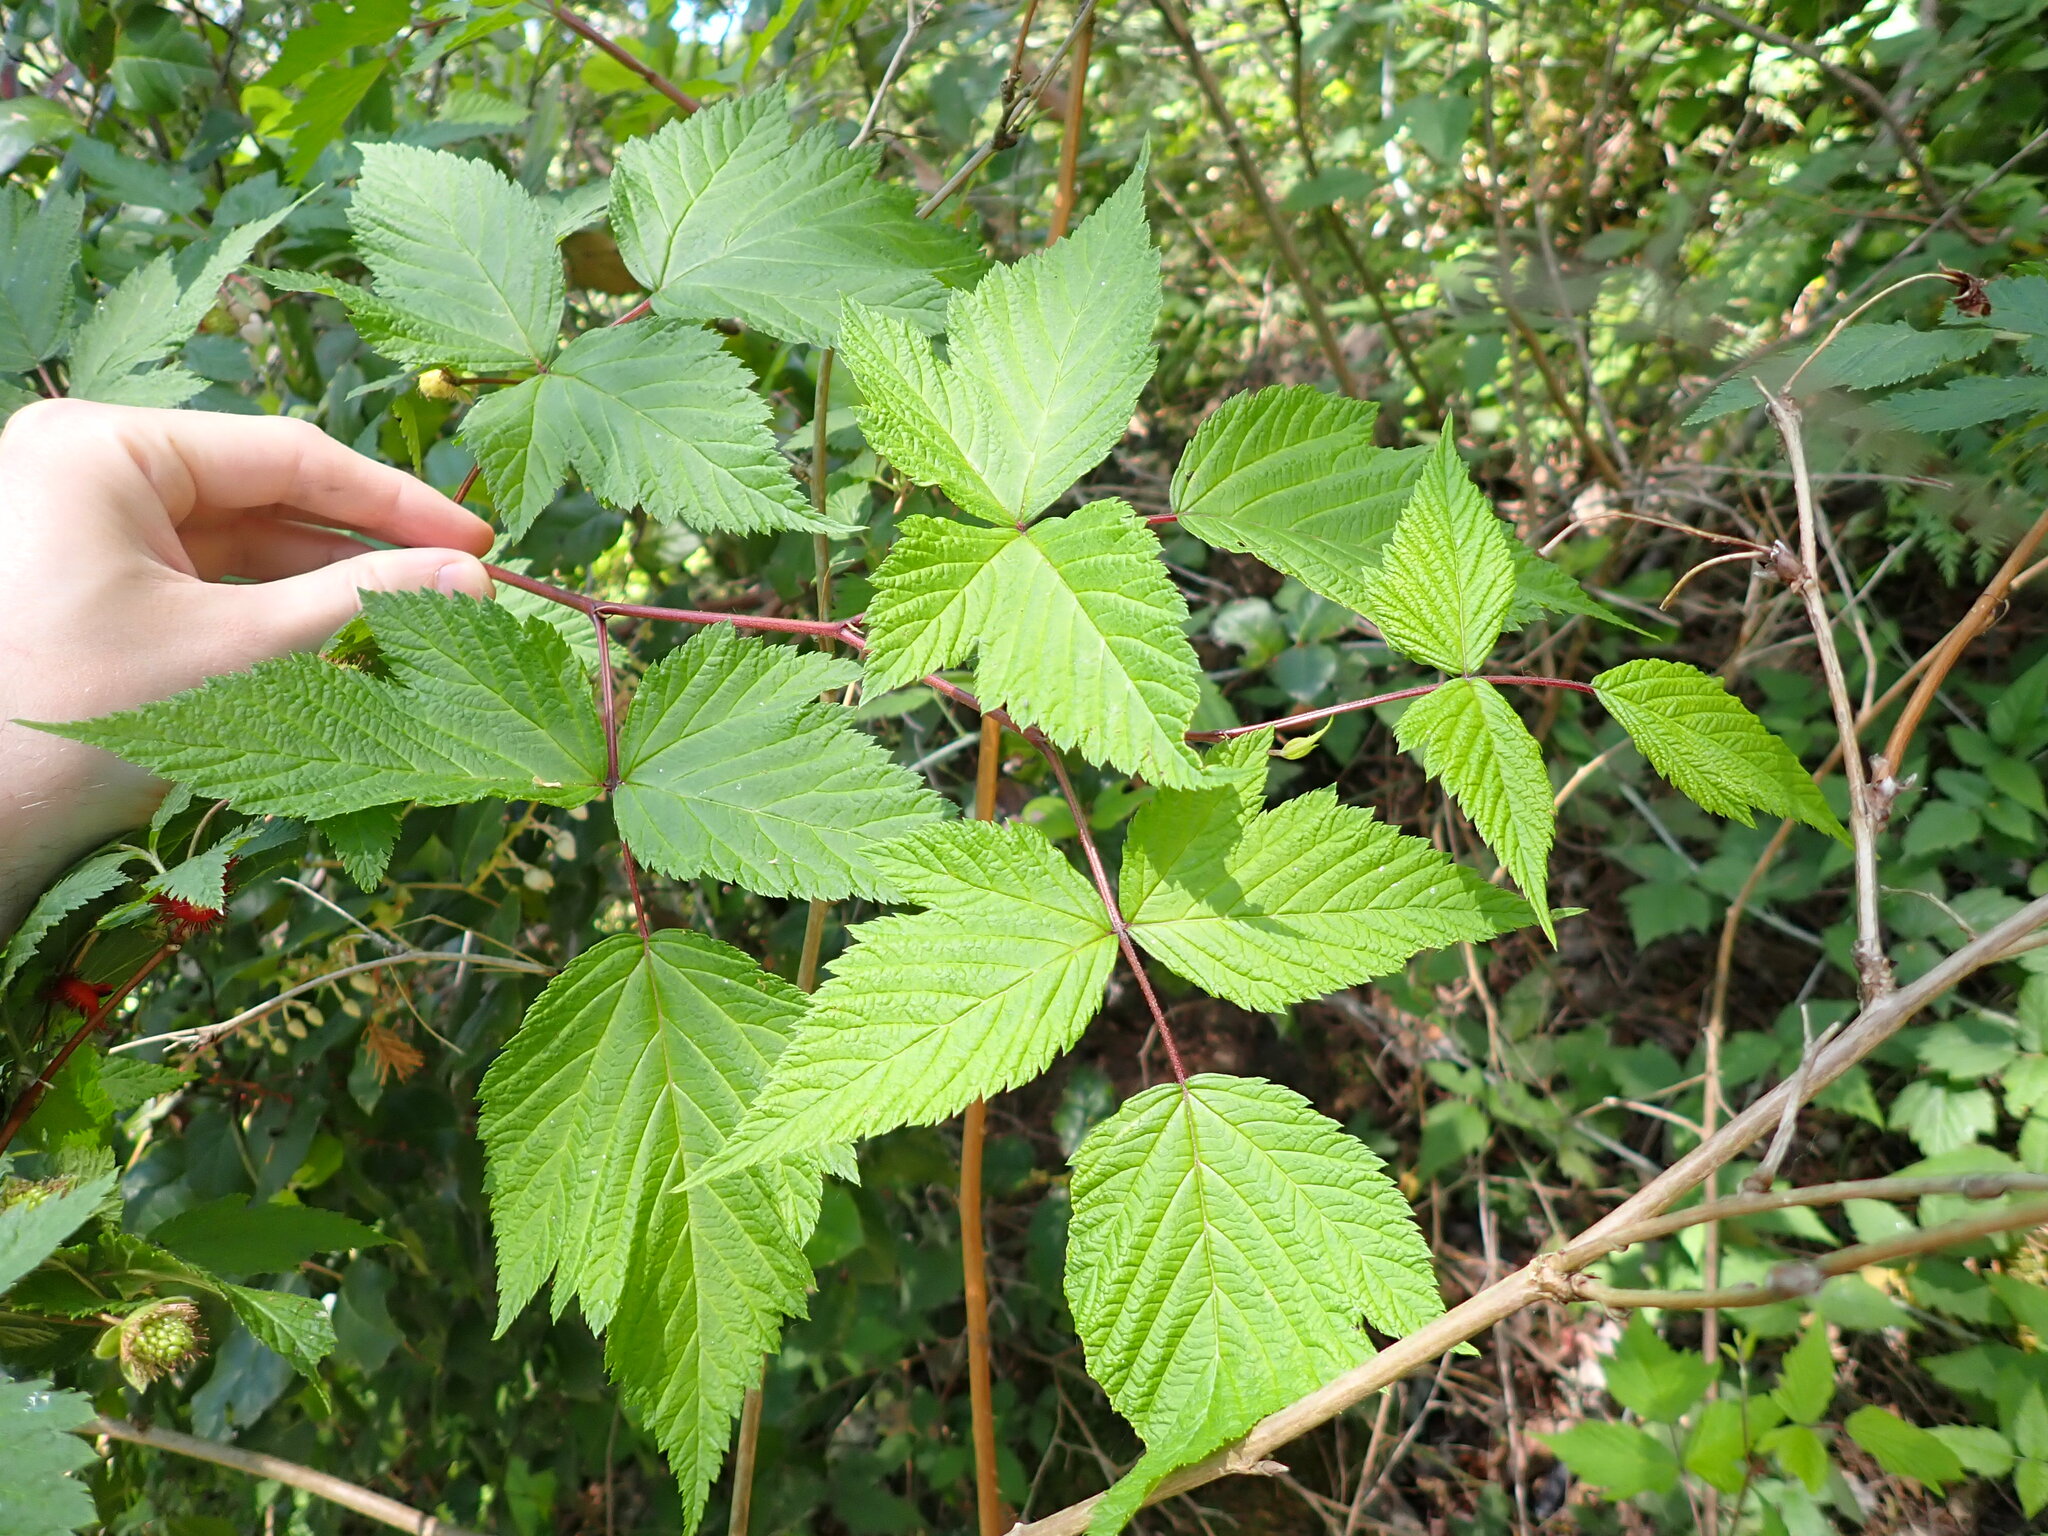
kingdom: Plantae
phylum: Tracheophyta
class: Magnoliopsida
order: Rosales
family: Rosaceae
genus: Rubus
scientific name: Rubus spectabilis
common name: Salmonberry
